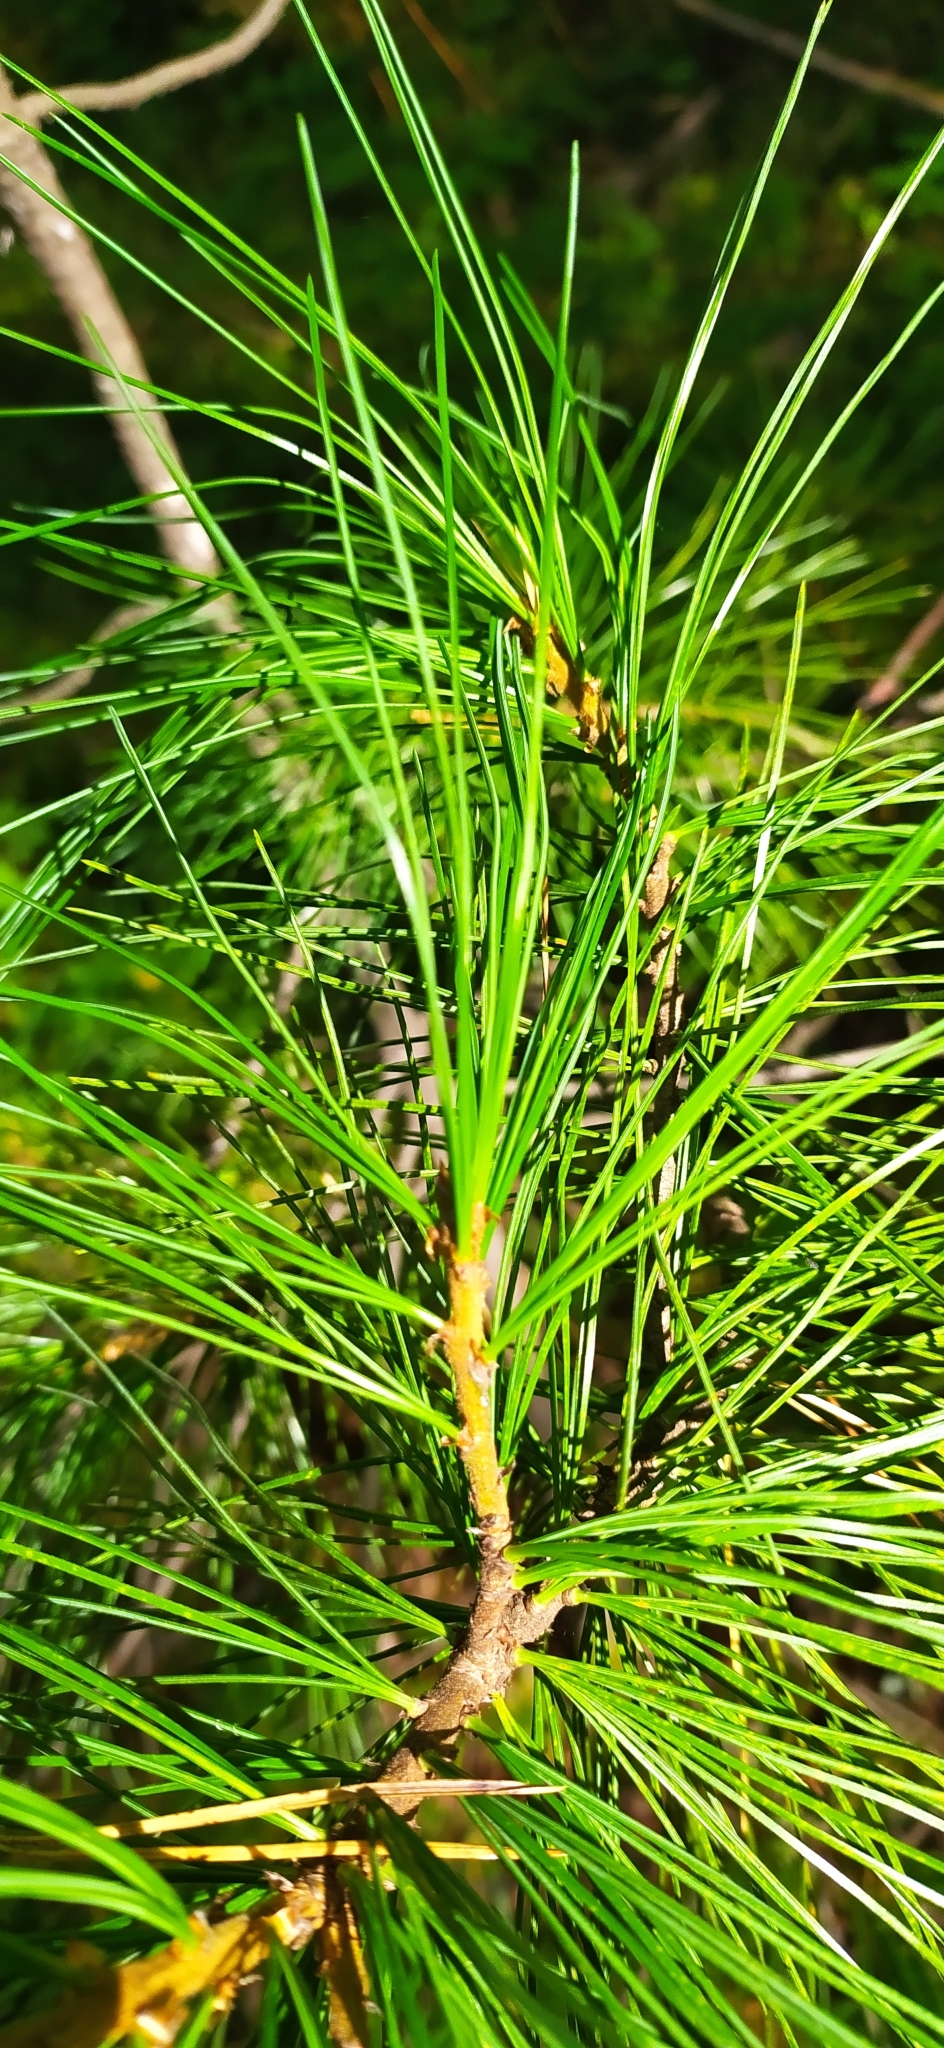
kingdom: Plantae
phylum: Tracheophyta
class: Pinopsida
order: Pinales
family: Pinaceae
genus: Pinus
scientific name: Pinus sibirica
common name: Siberian pine
